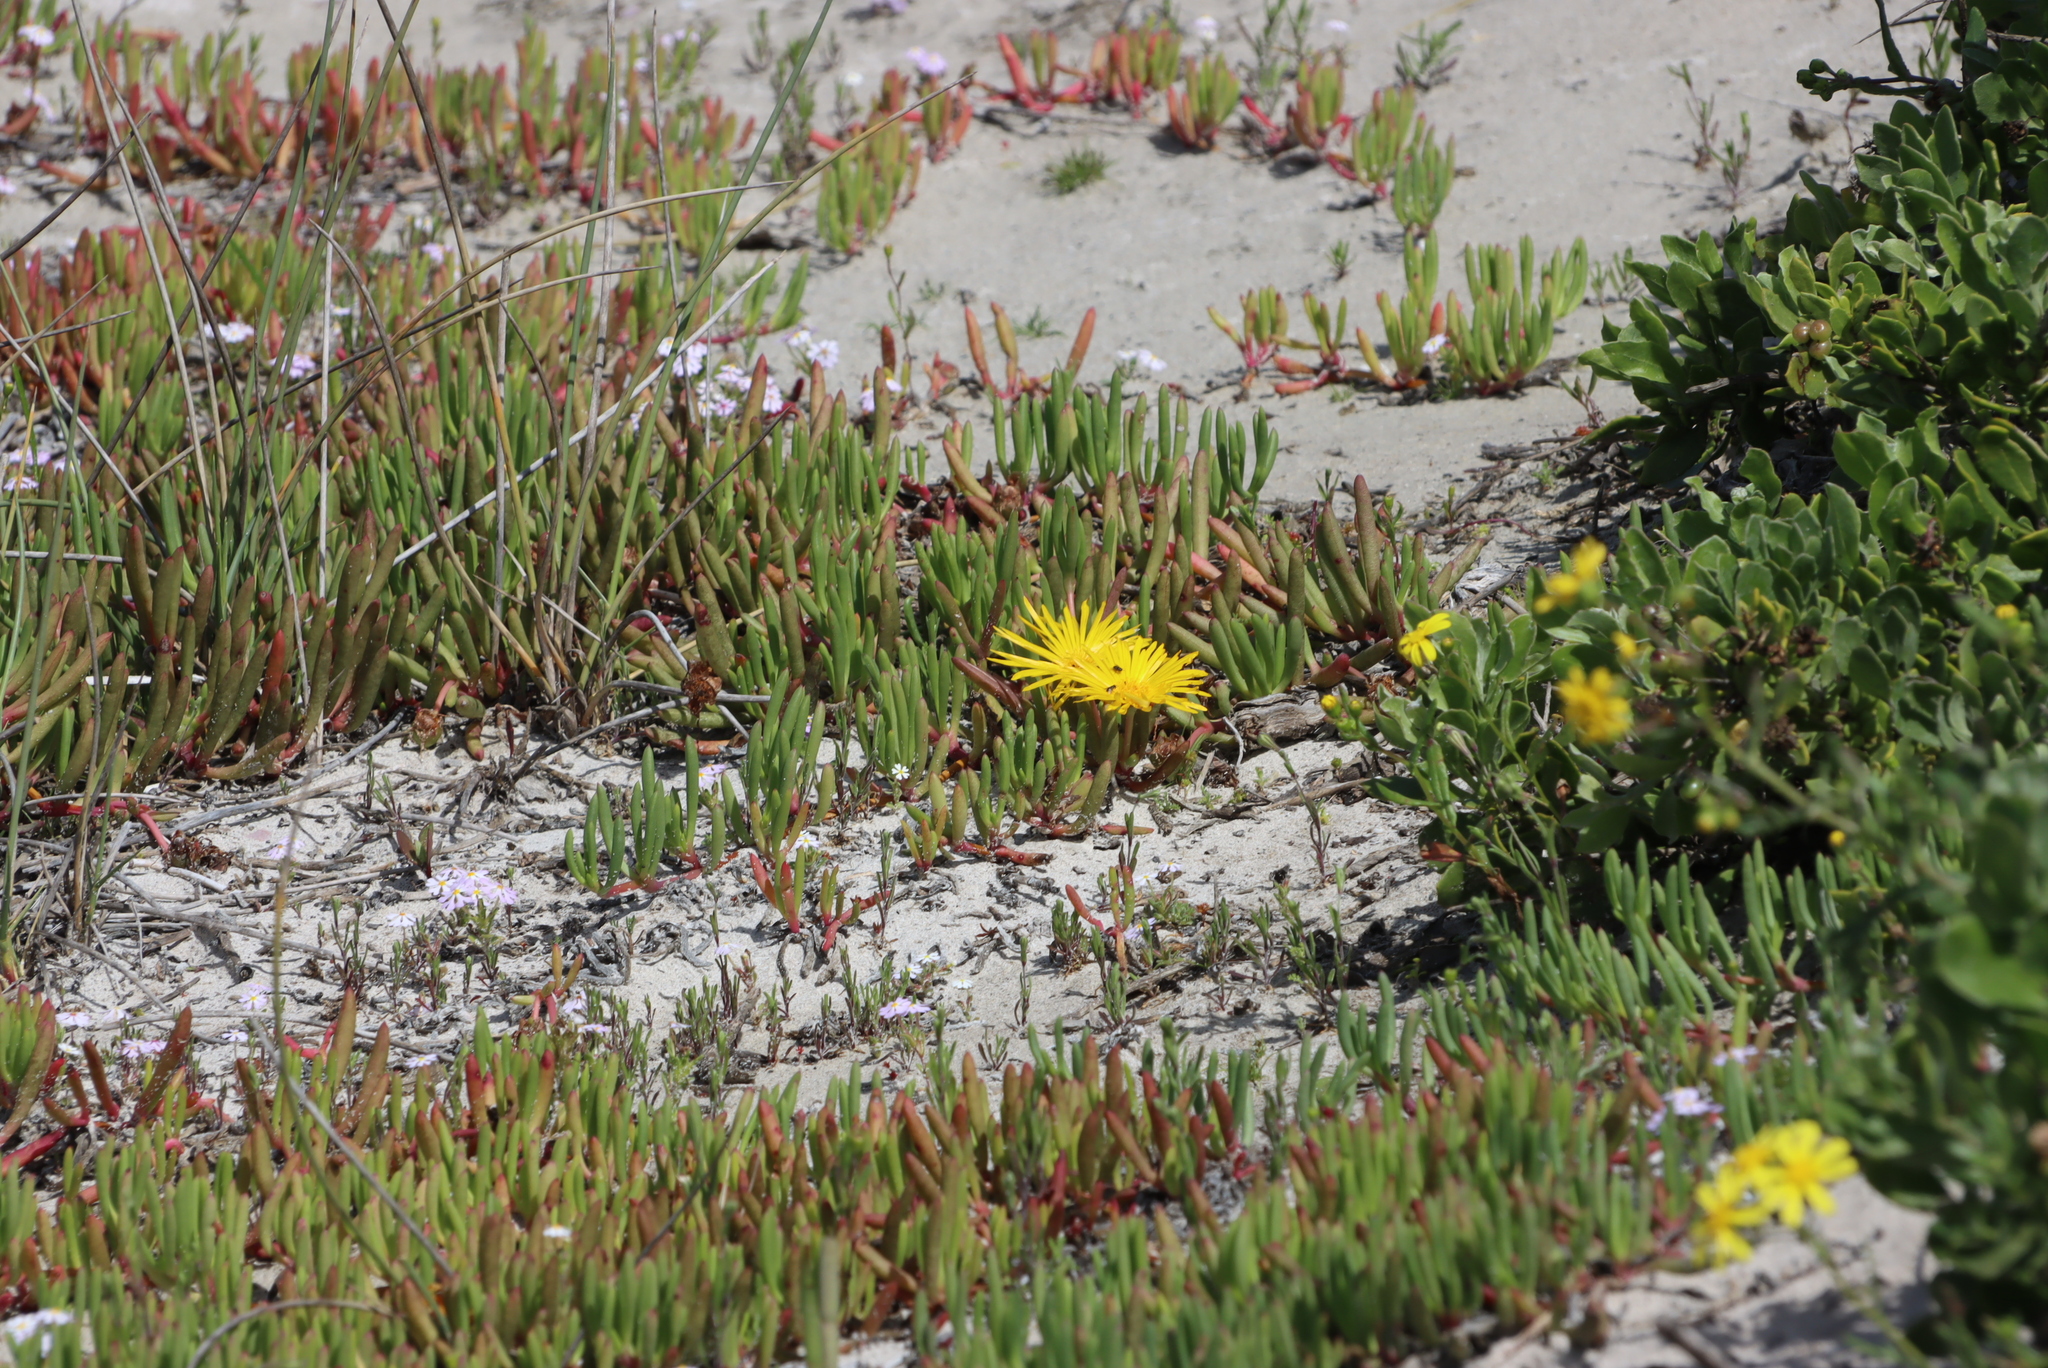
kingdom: Plantae
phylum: Tracheophyta
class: Magnoliopsida
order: Caryophyllales
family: Aizoaceae
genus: Jordaaniella
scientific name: Jordaaniella dubia
